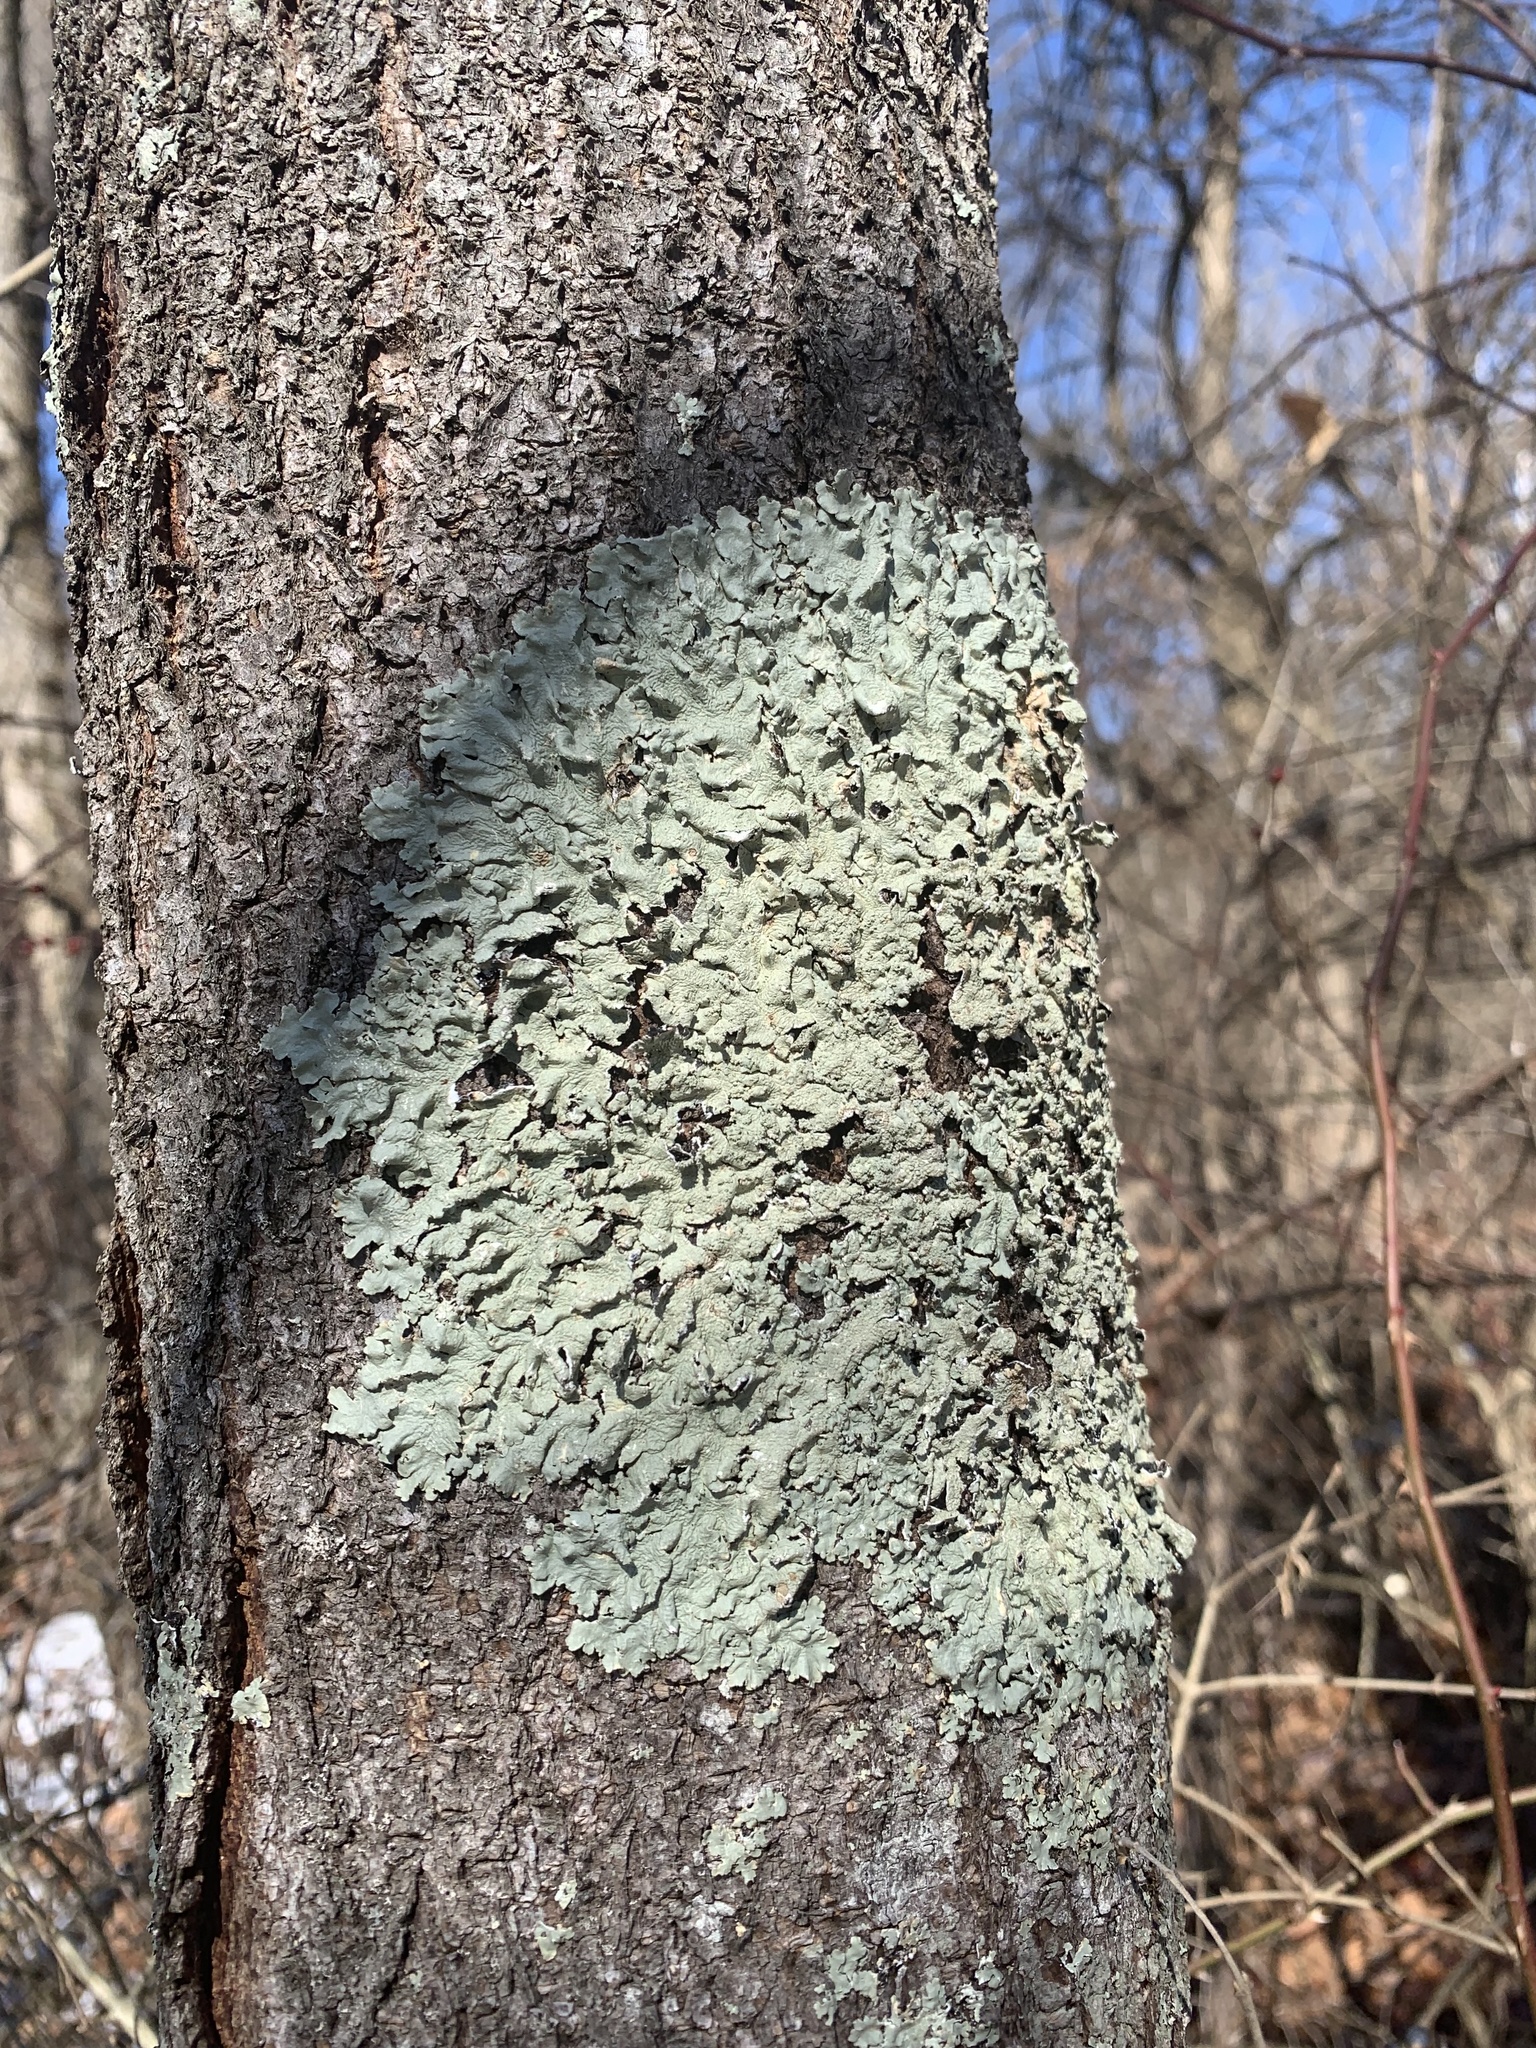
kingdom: Fungi
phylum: Ascomycota
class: Lecanoromycetes
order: Lecanorales
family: Parmeliaceae
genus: Flavoparmelia
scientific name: Flavoparmelia caperata
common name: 40-mile per hour lichen
